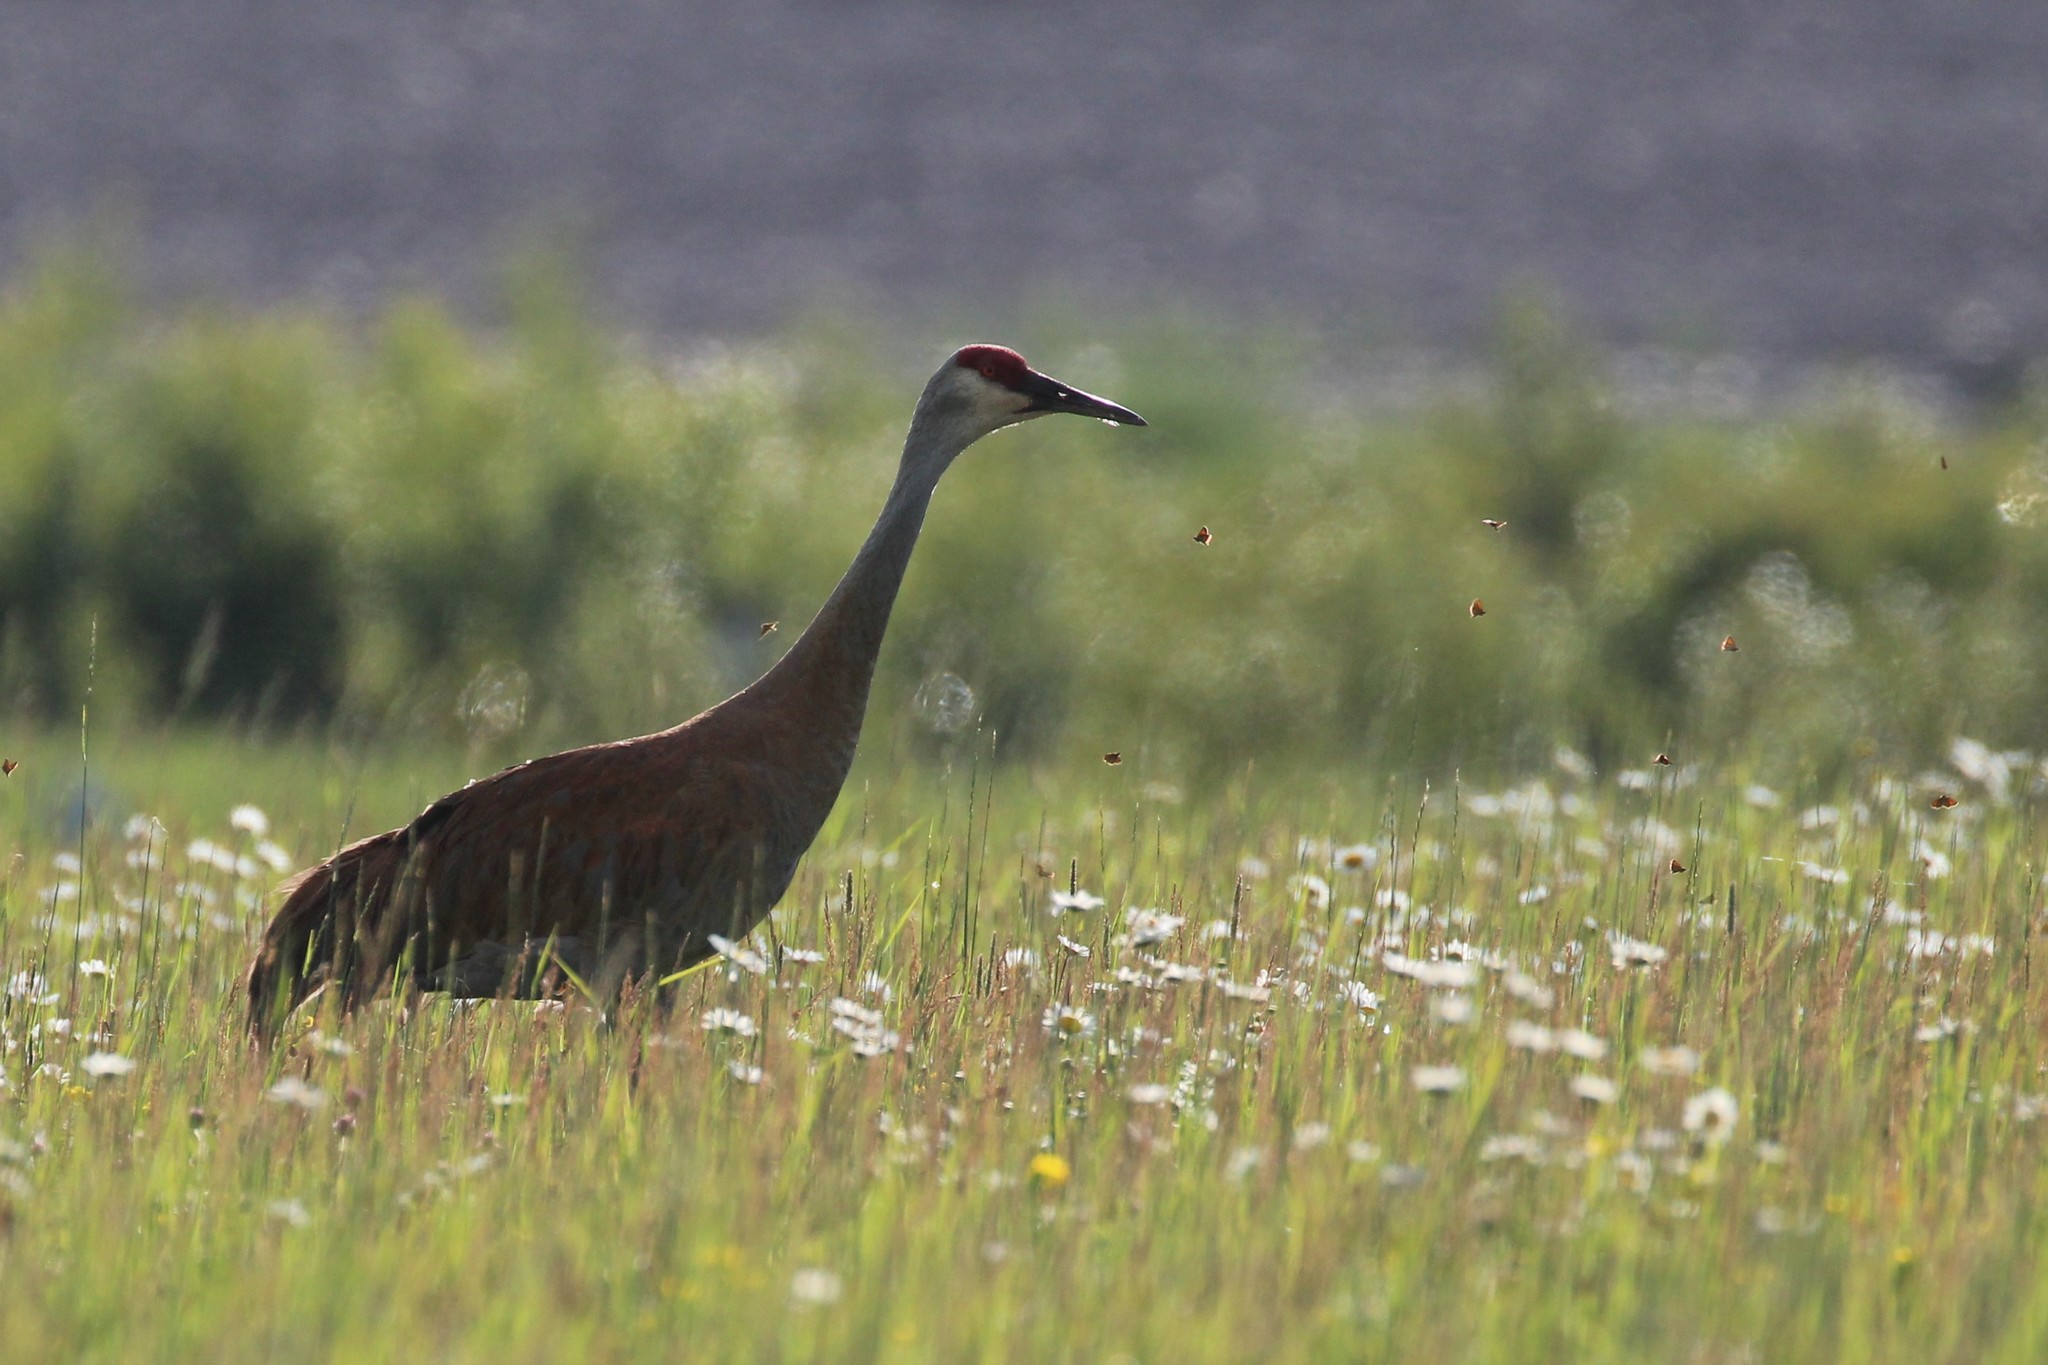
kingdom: Animalia
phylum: Chordata
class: Aves
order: Gruiformes
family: Gruidae
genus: Grus
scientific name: Grus canadensis
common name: Sandhill crane
